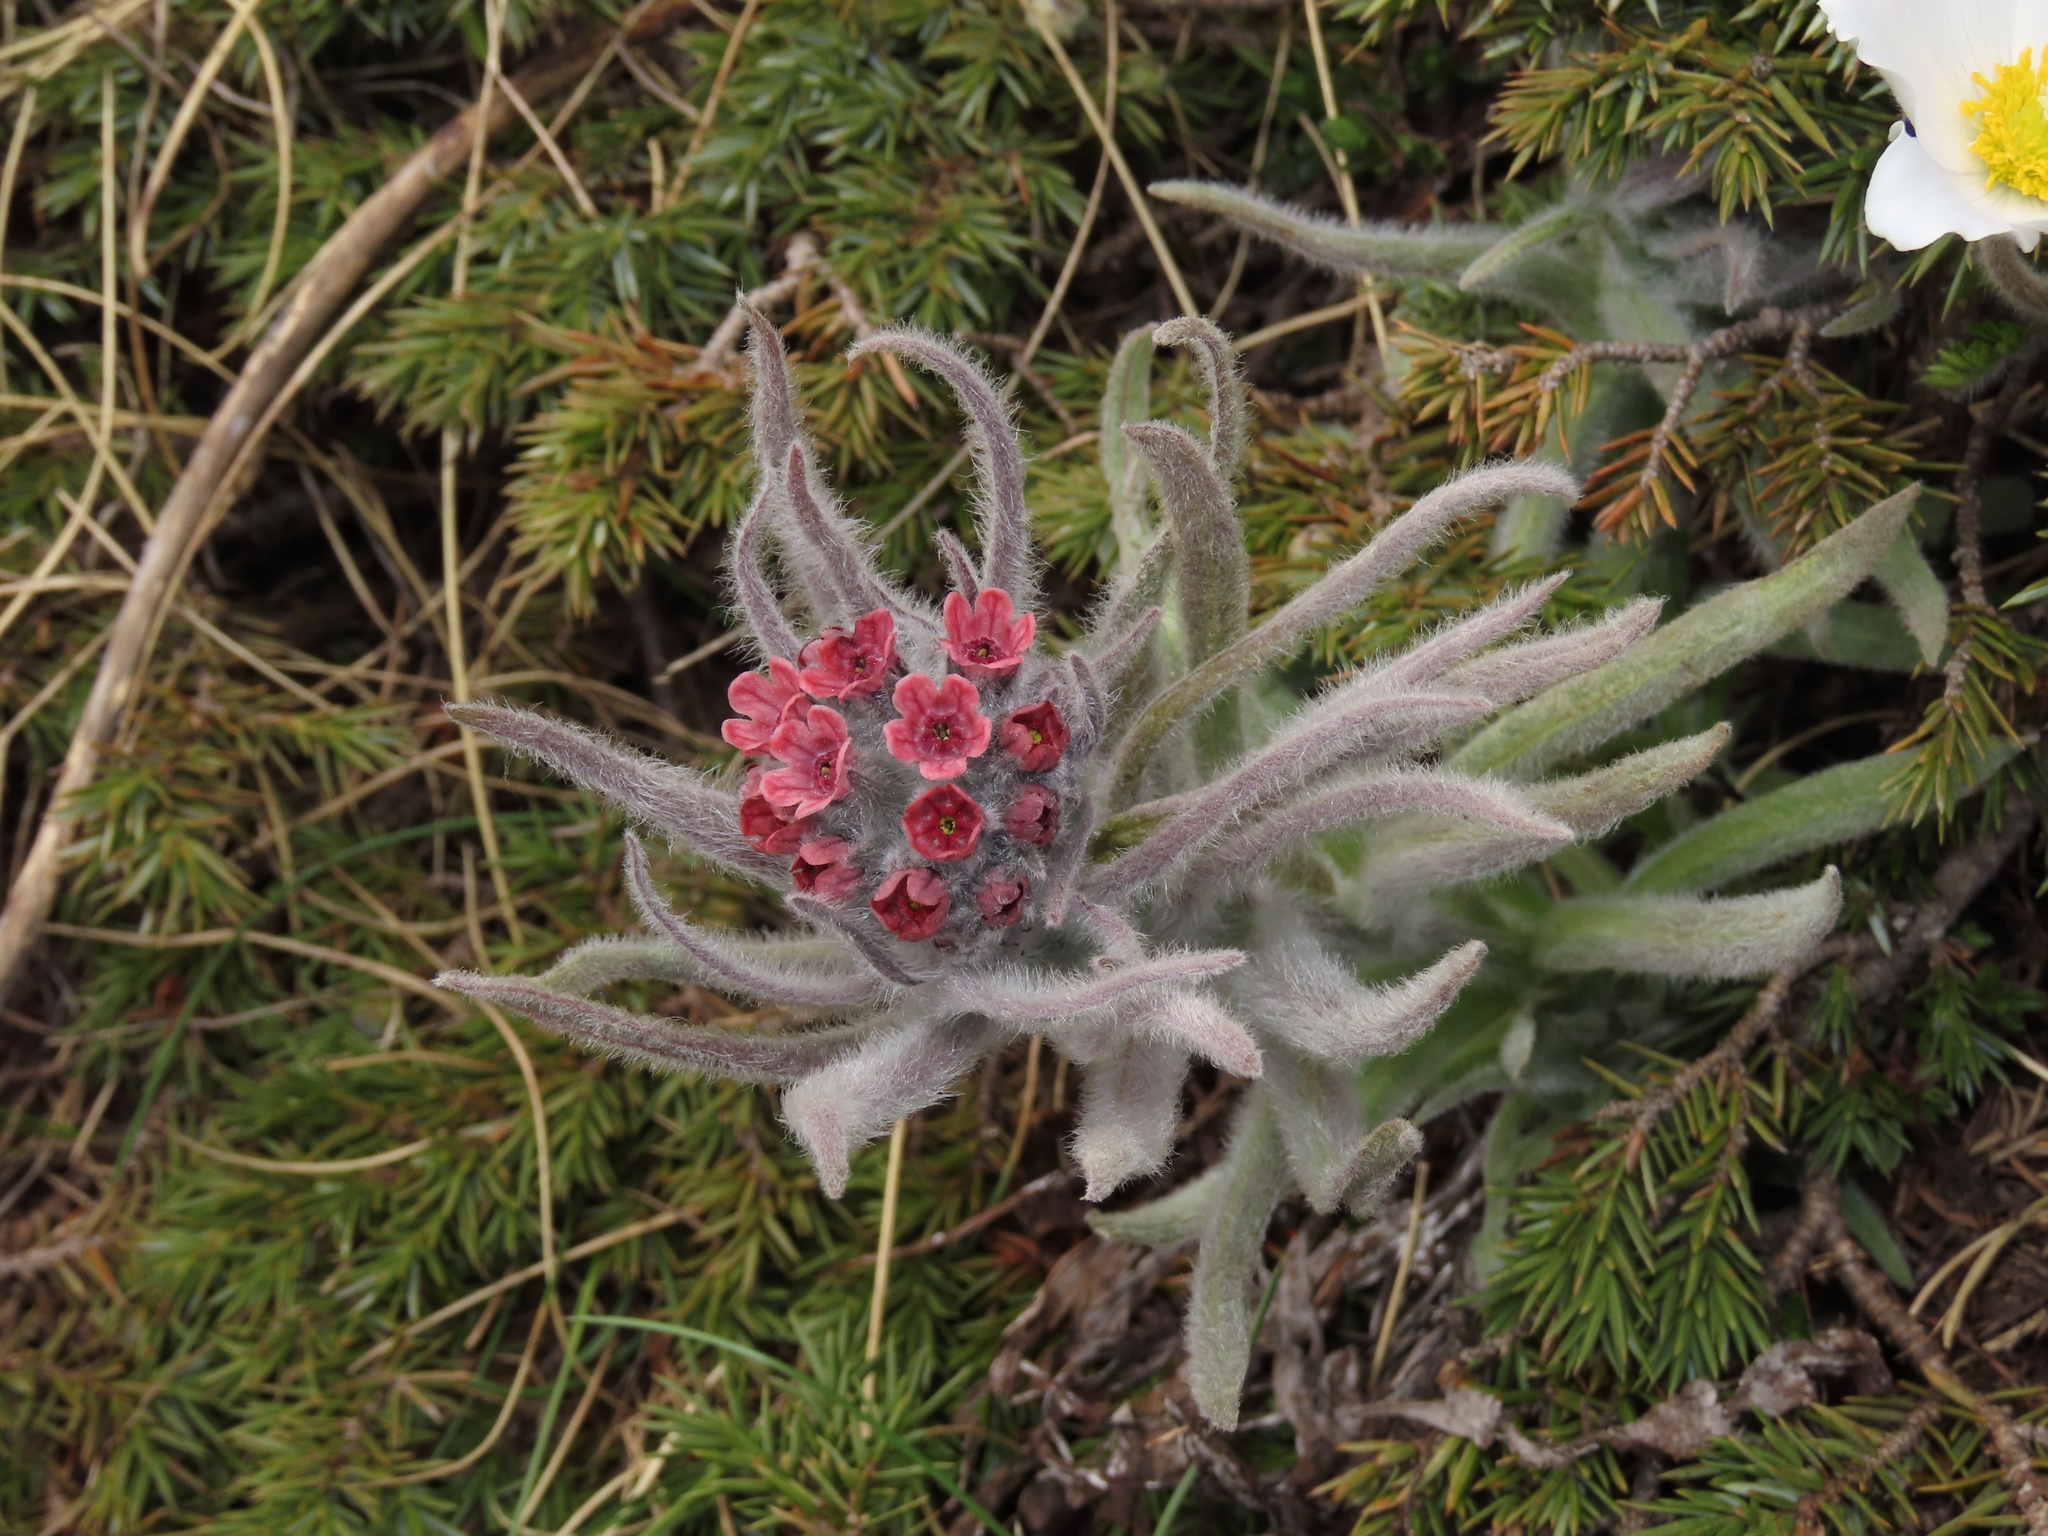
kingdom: Plantae
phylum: Tracheophyta
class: Magnoliopsida
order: Boraginales
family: Boraginaceae
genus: Rindera
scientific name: Rindera magellensis
